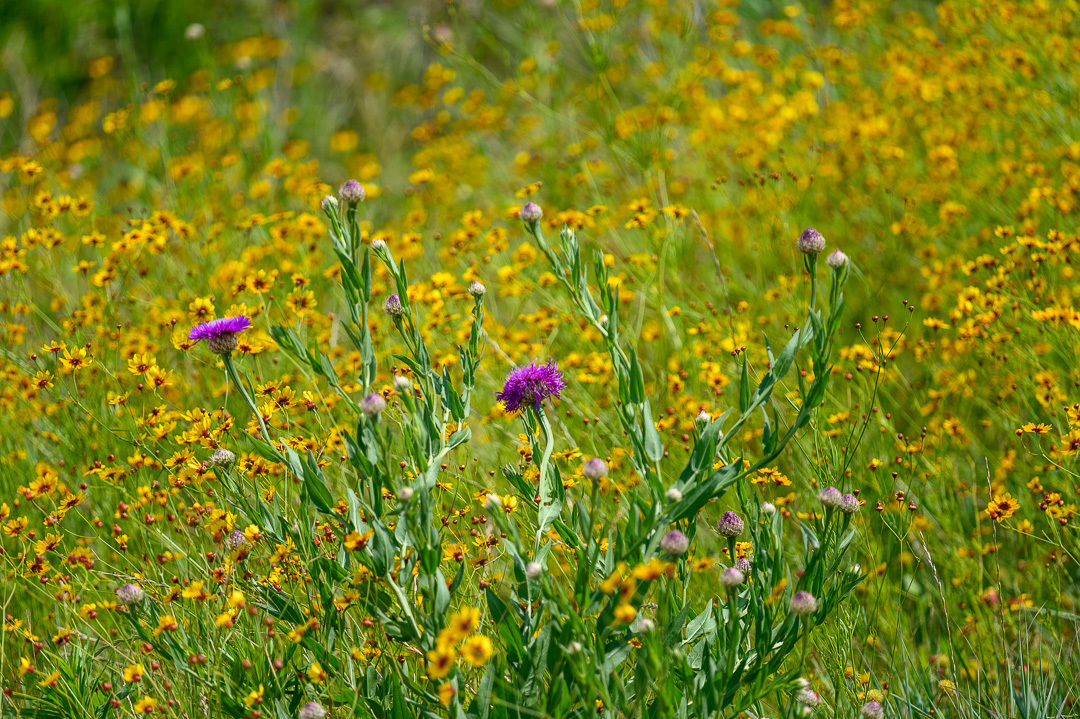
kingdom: Plantae
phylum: Tracheophyta
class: Magnoliopsida
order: Asterales
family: Asteraceae
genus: Plectocephalus
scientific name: Plectocephalus americanus
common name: American basket-flower
